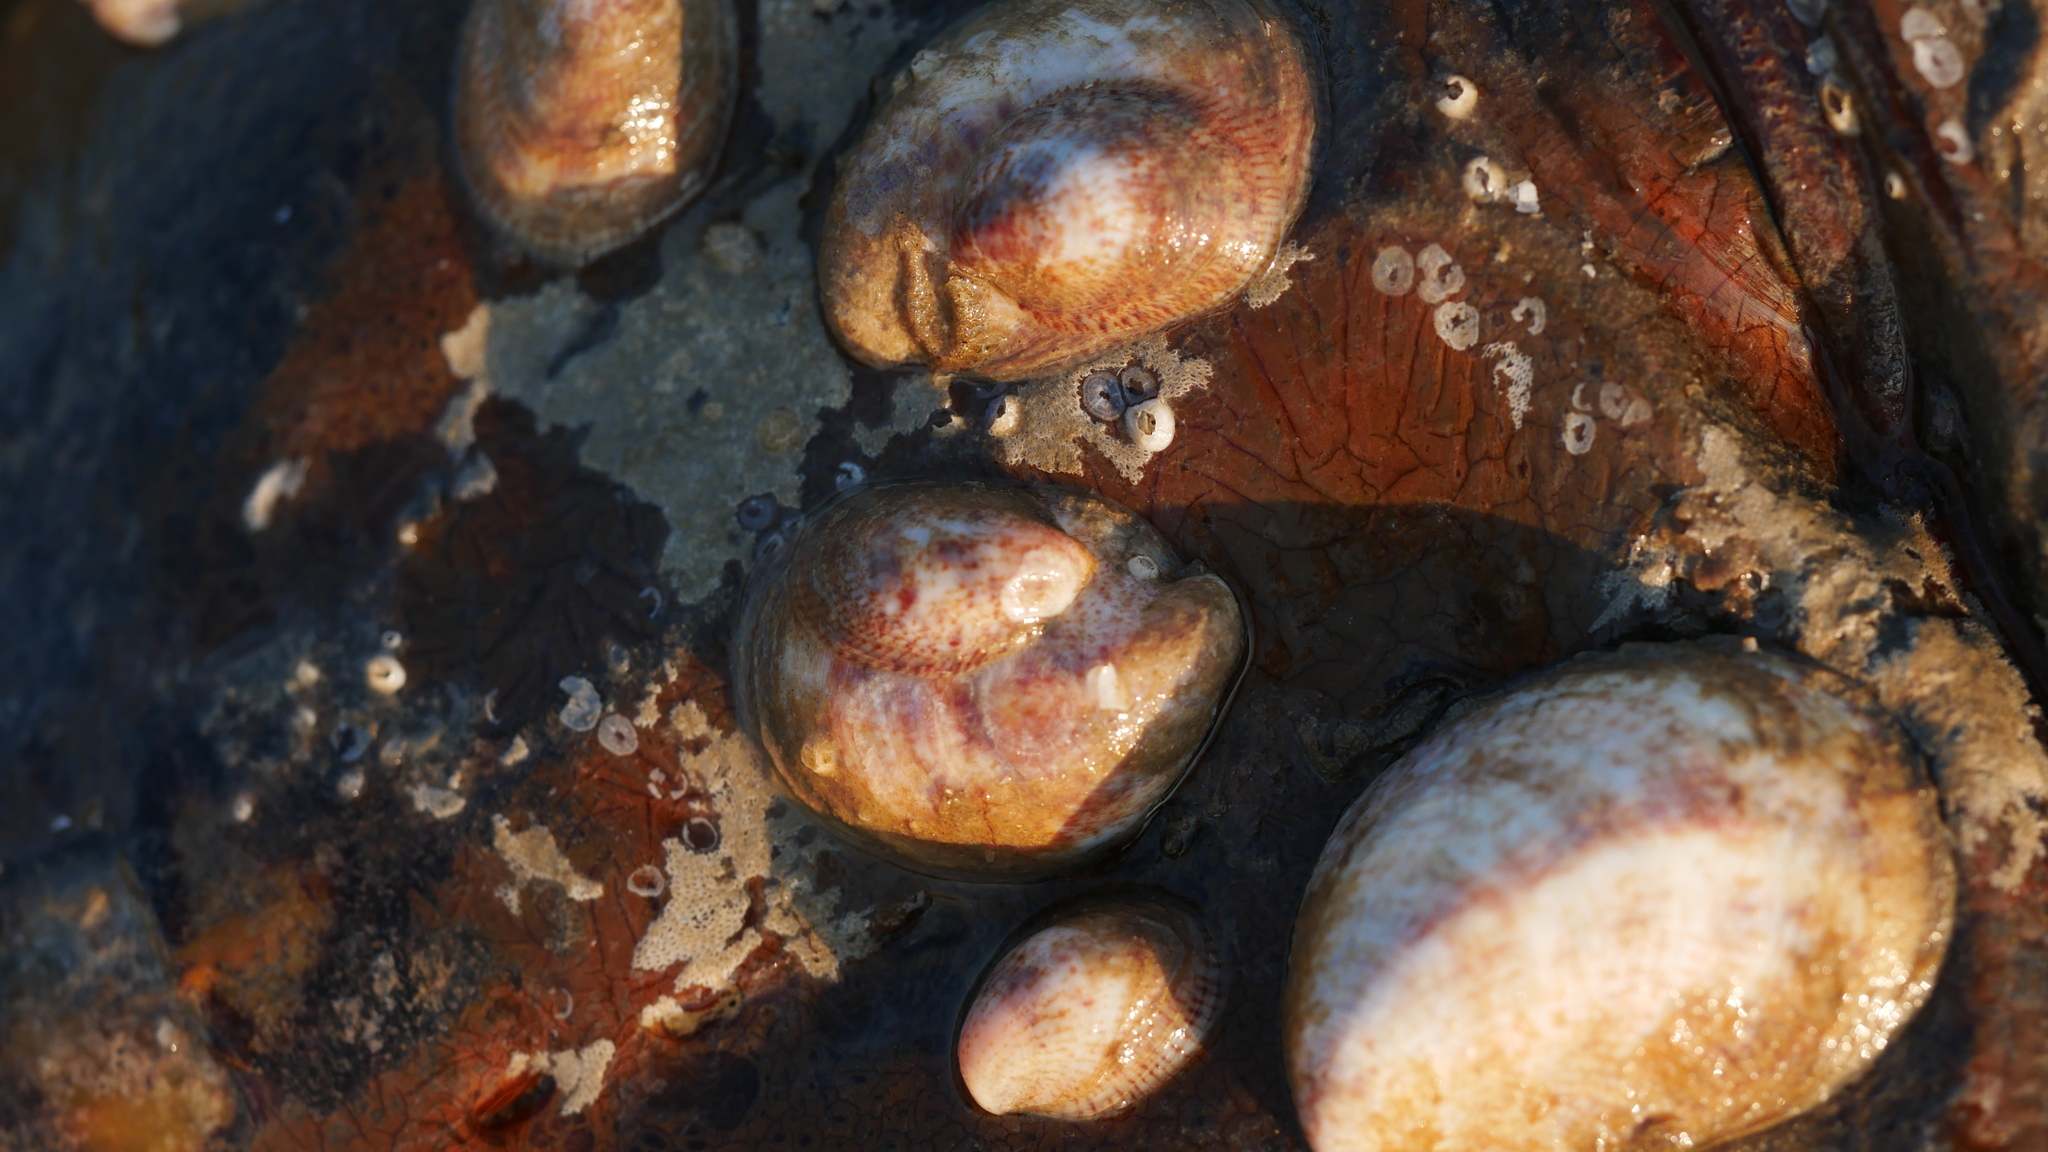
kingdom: Animalia
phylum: Mollusca
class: Gastropoda
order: Littorinimorpha
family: Calyptraeidae
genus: Crepidula
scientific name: Crepidula fornicata
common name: Slipper limpet
